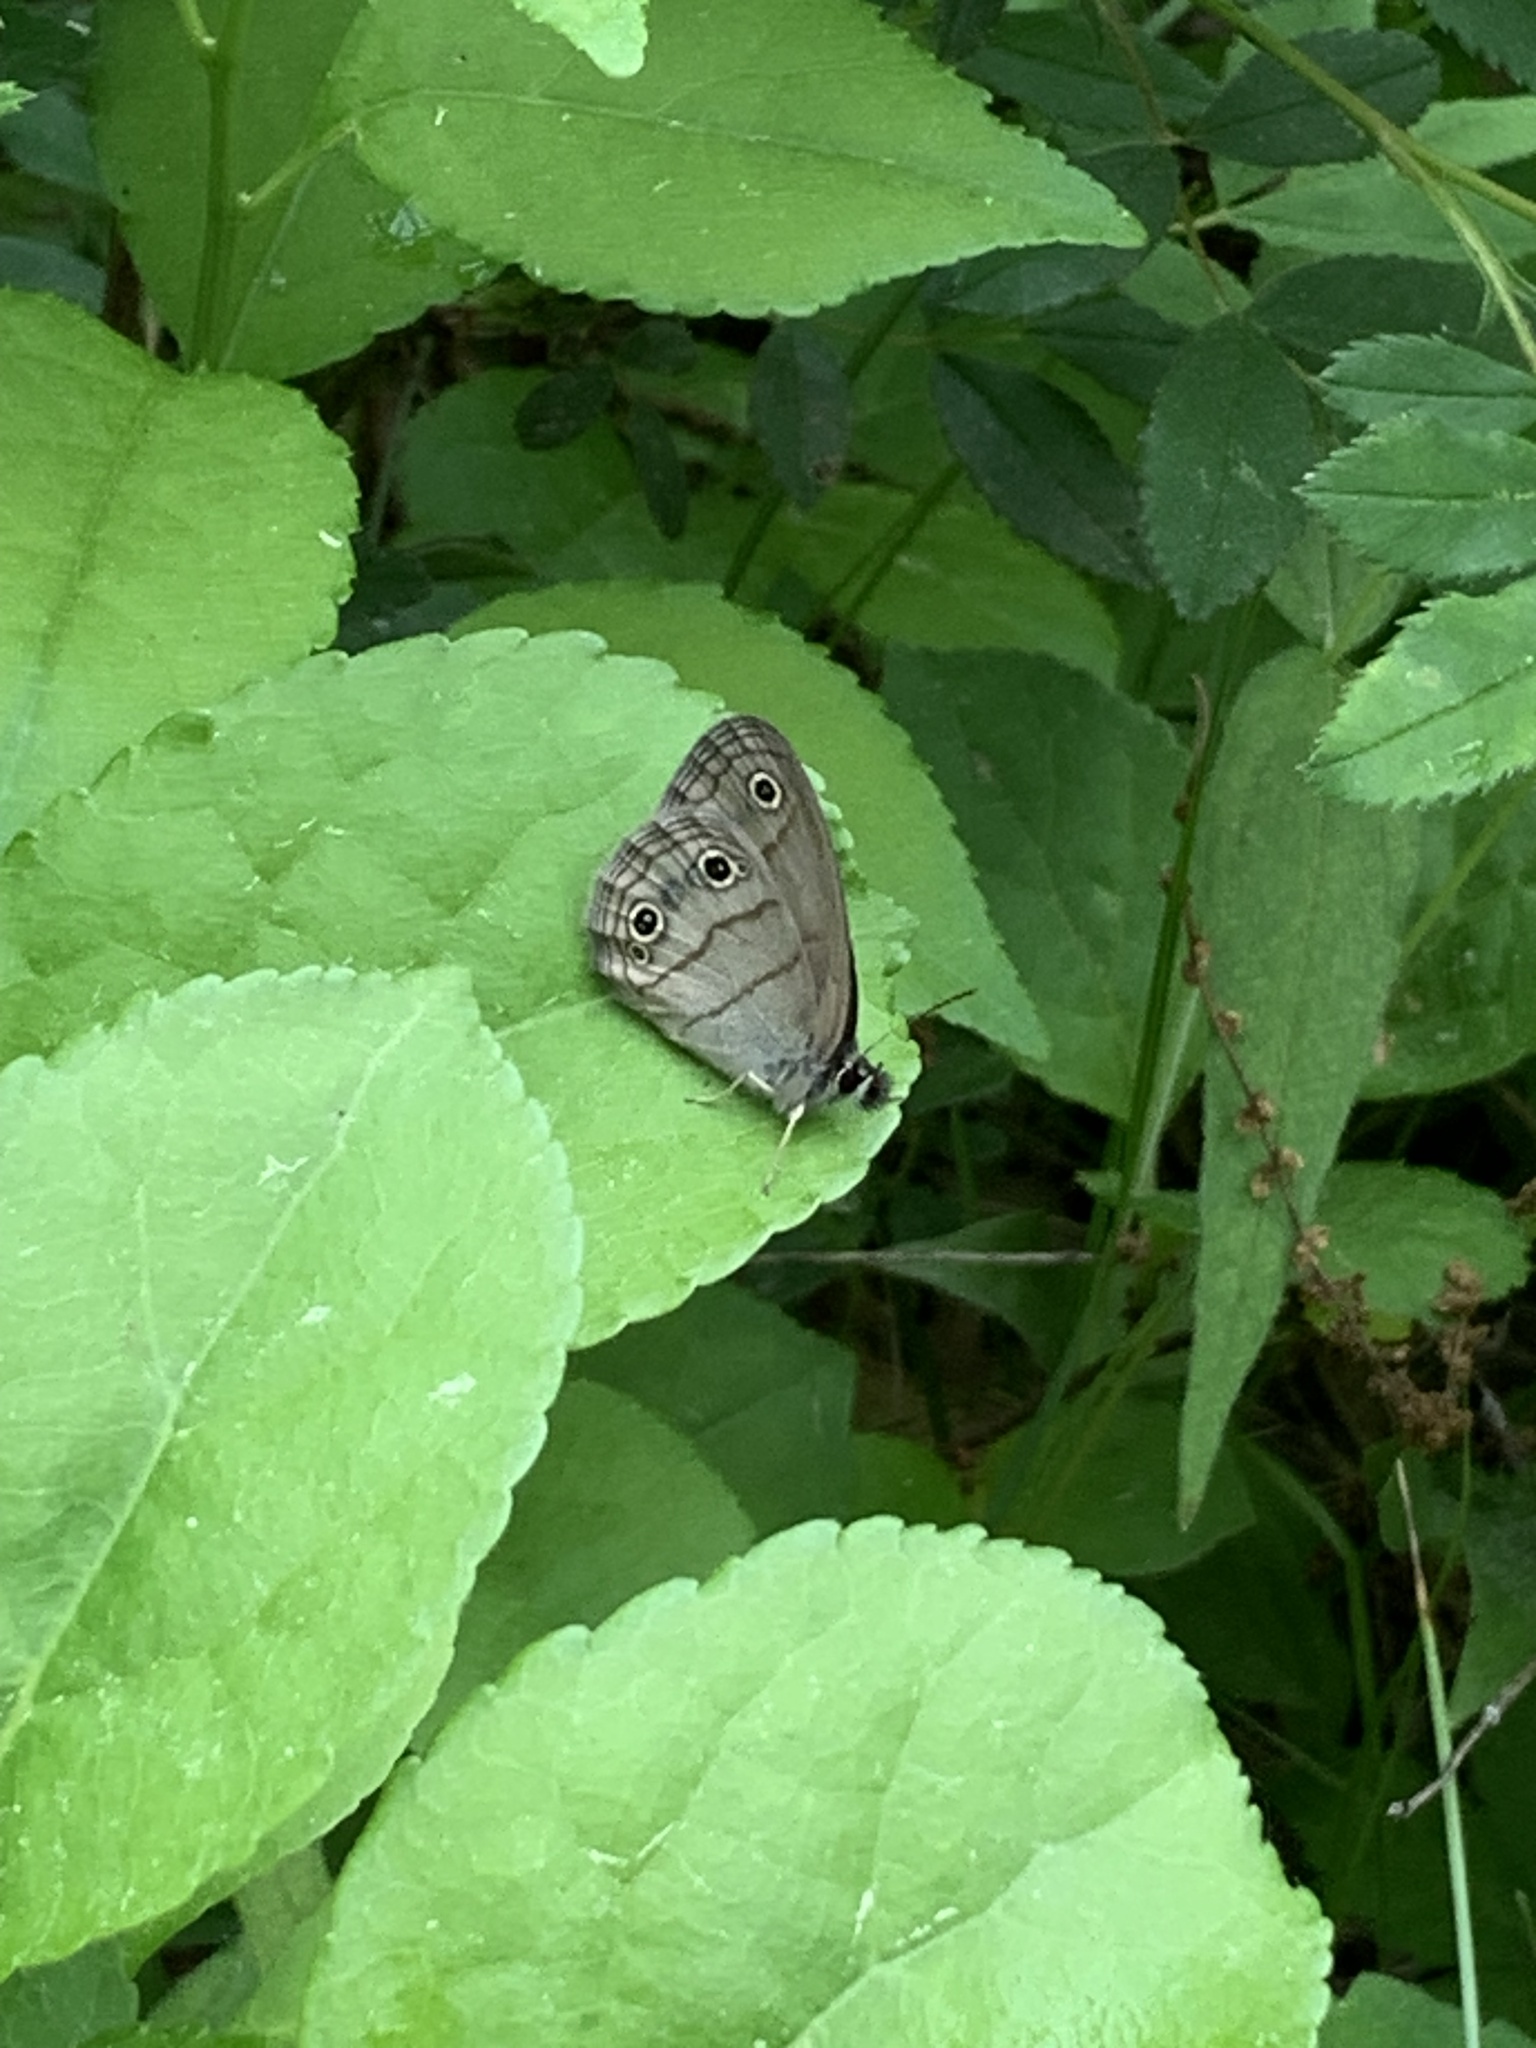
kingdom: Animalia
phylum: Arthropoda
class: Insecta
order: Lepidoptera
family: Nymphalidae
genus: Euptychia
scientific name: Euptychia cymela
